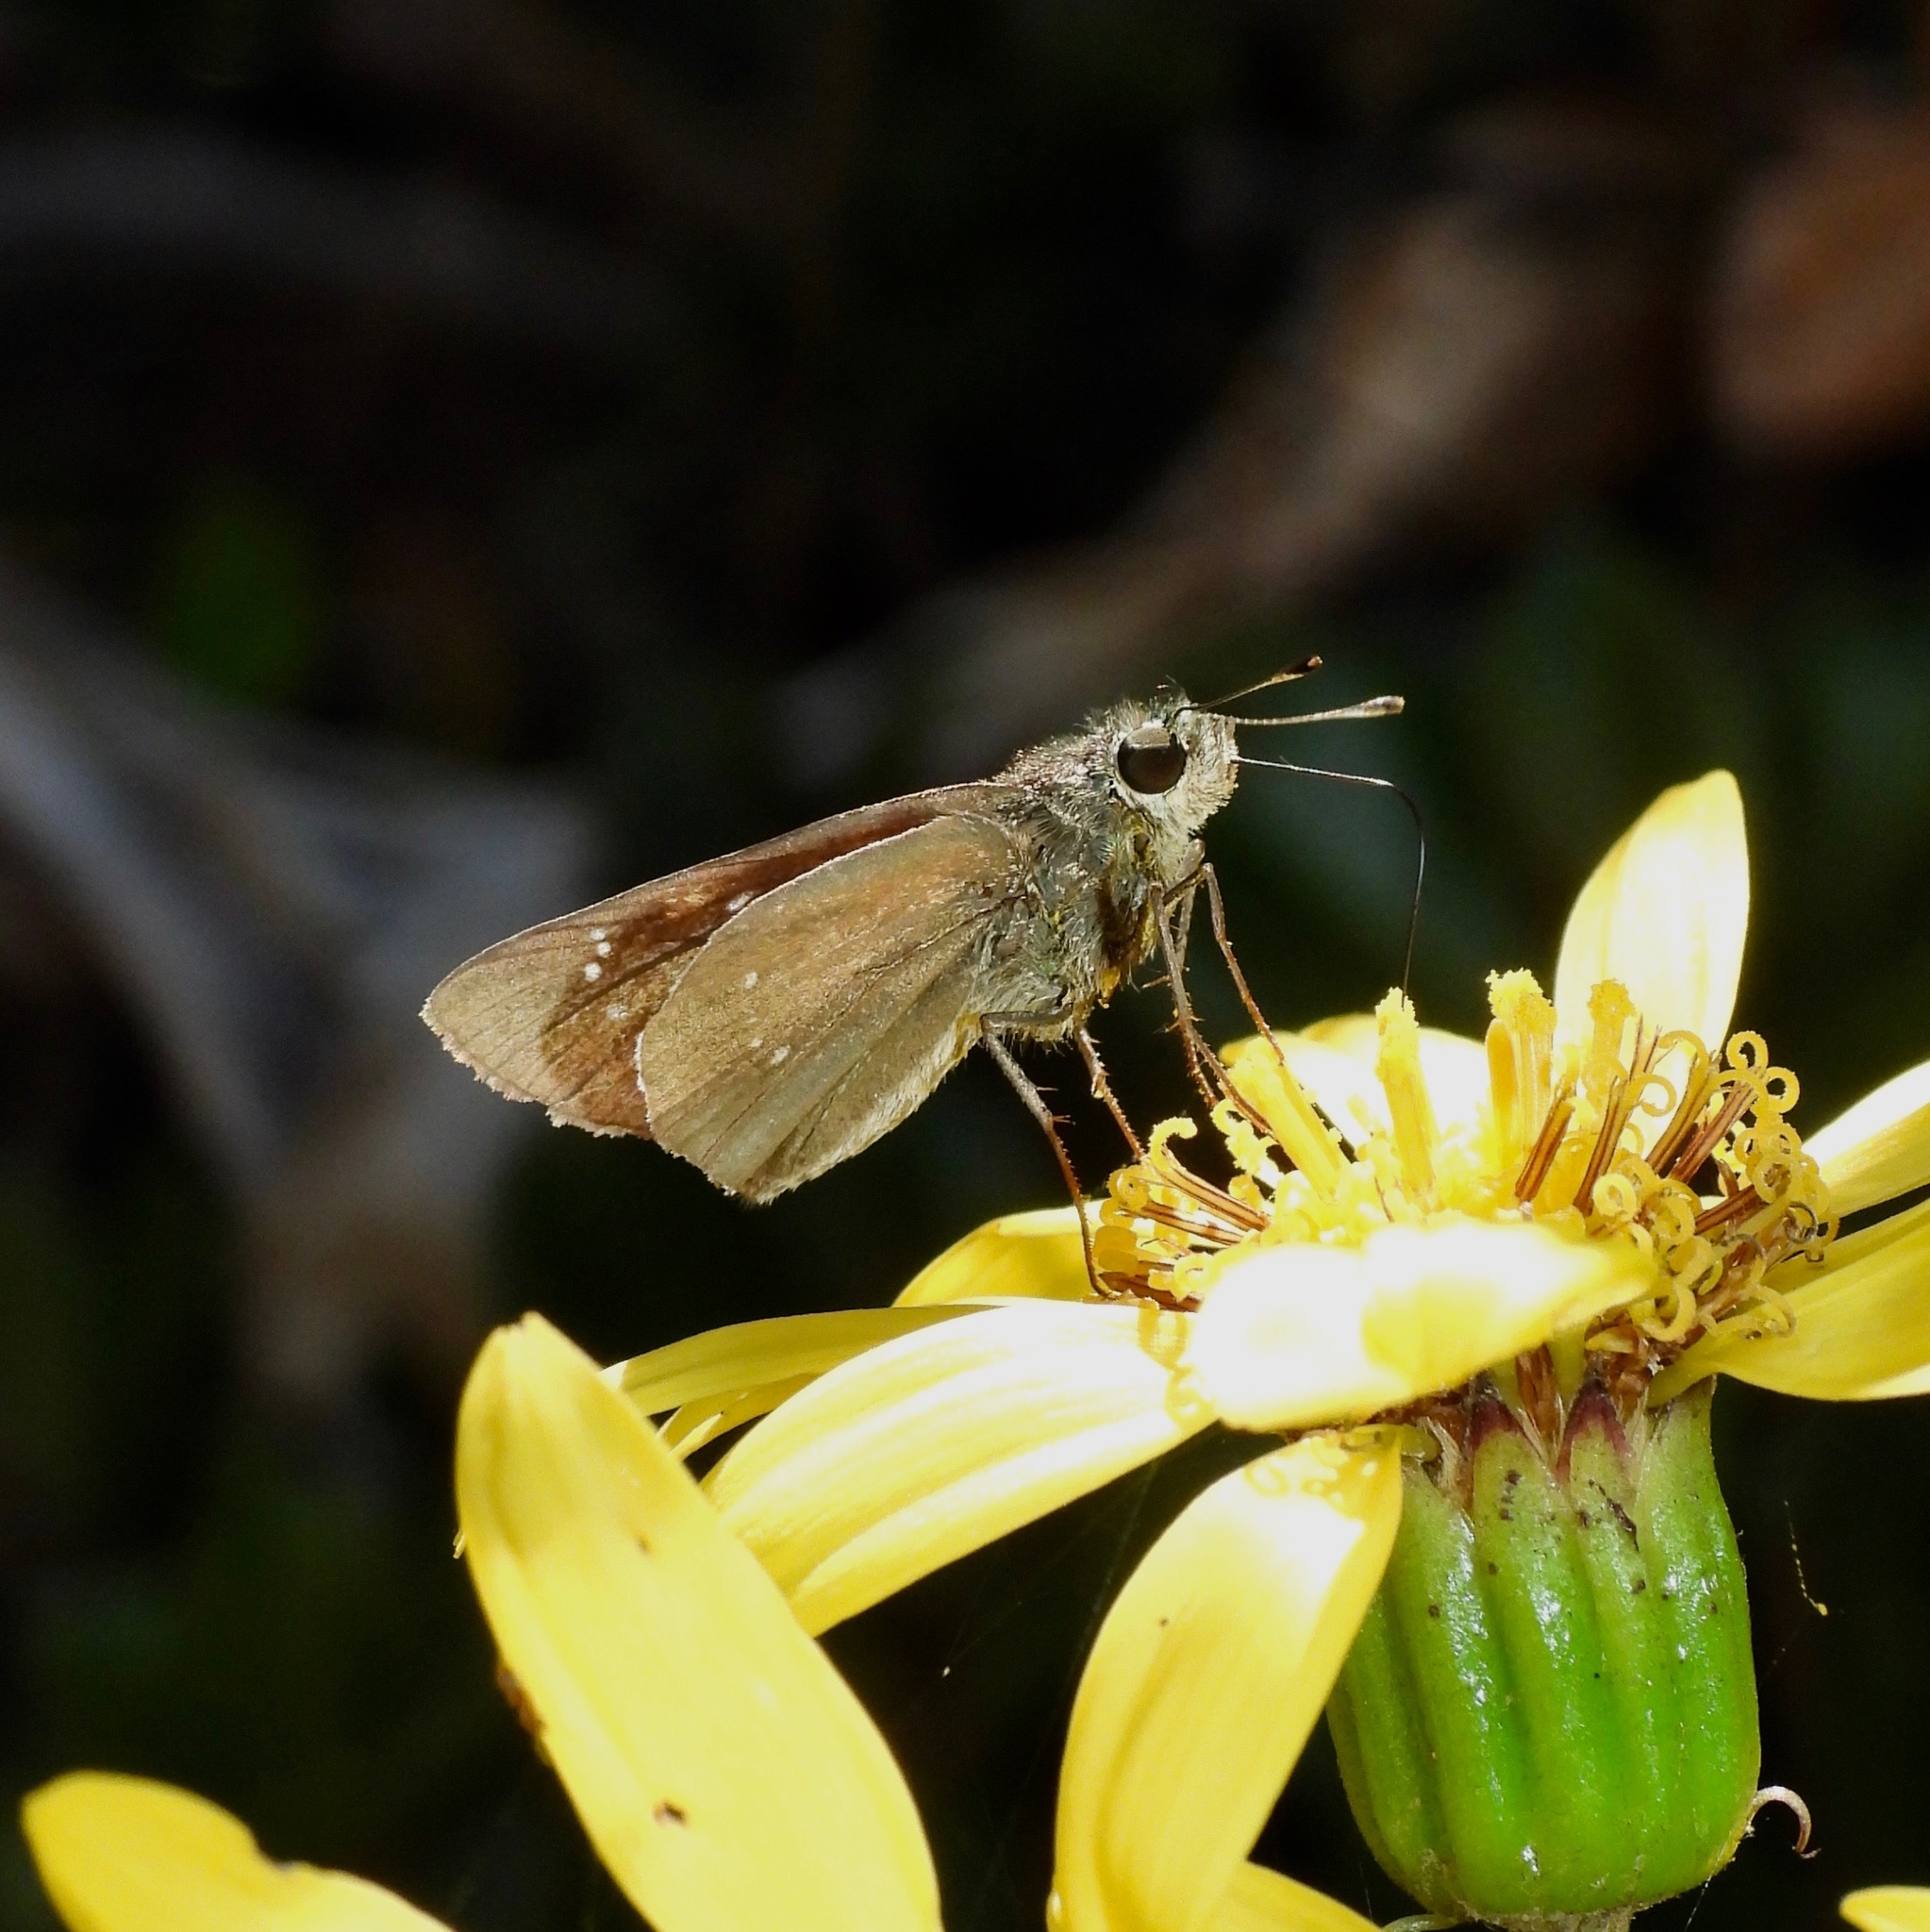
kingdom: Animalia
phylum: Arthropoda
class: Insecta
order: Lepidoptera
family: Hesperiidae
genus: Parnara
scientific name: Parnara guttatus
